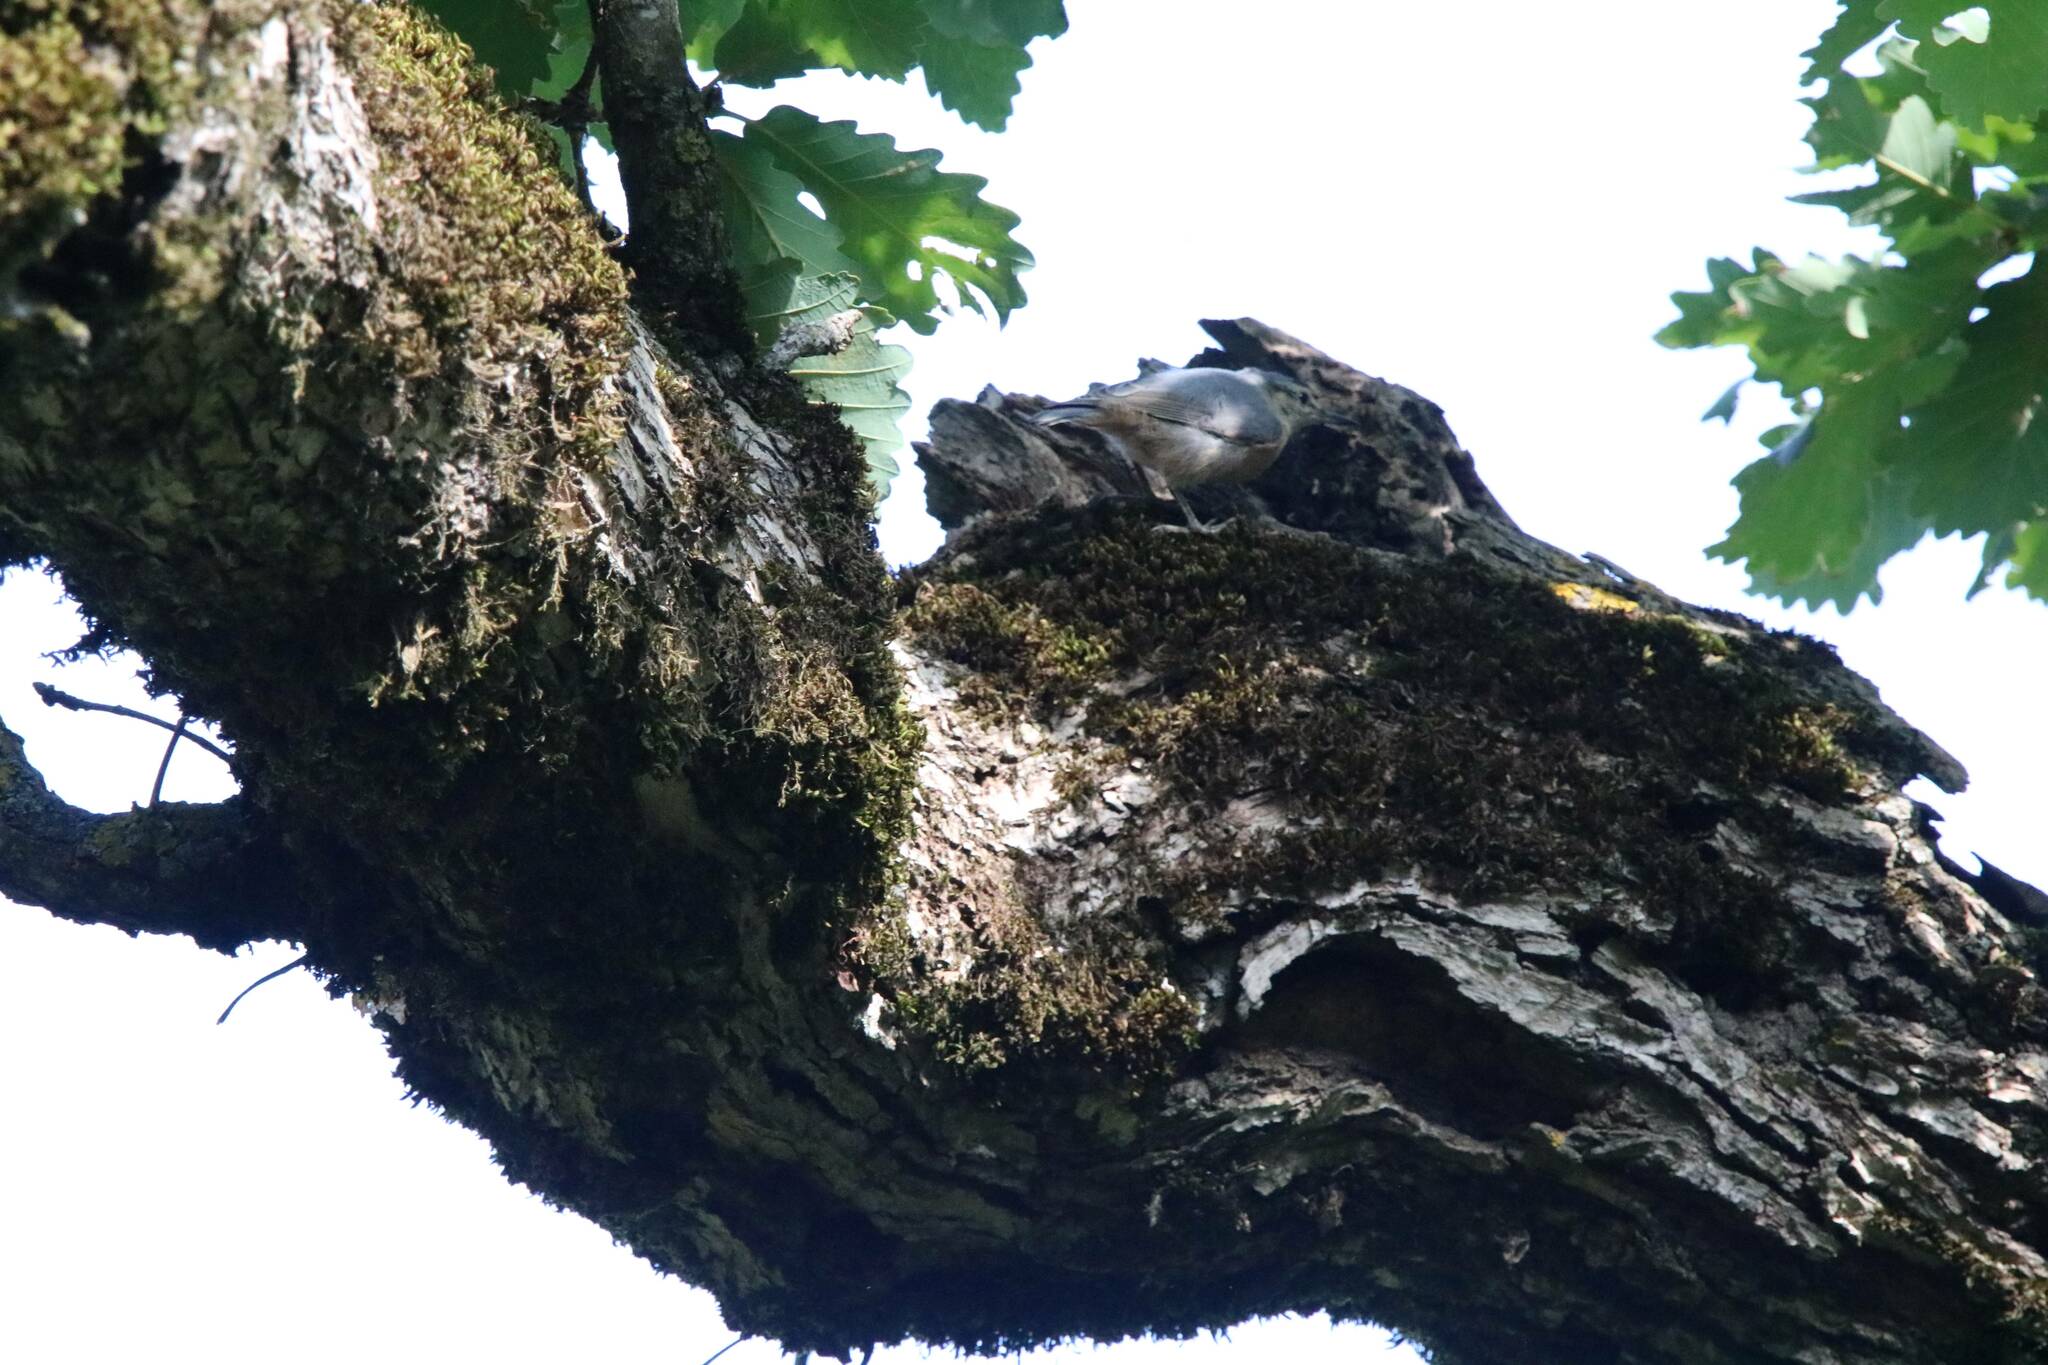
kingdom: Animalia
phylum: Chordata
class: Aves
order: Passeriformes
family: Sittidae
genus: Sitta
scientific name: Sitta ledanti
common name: Algerian nuthatch
